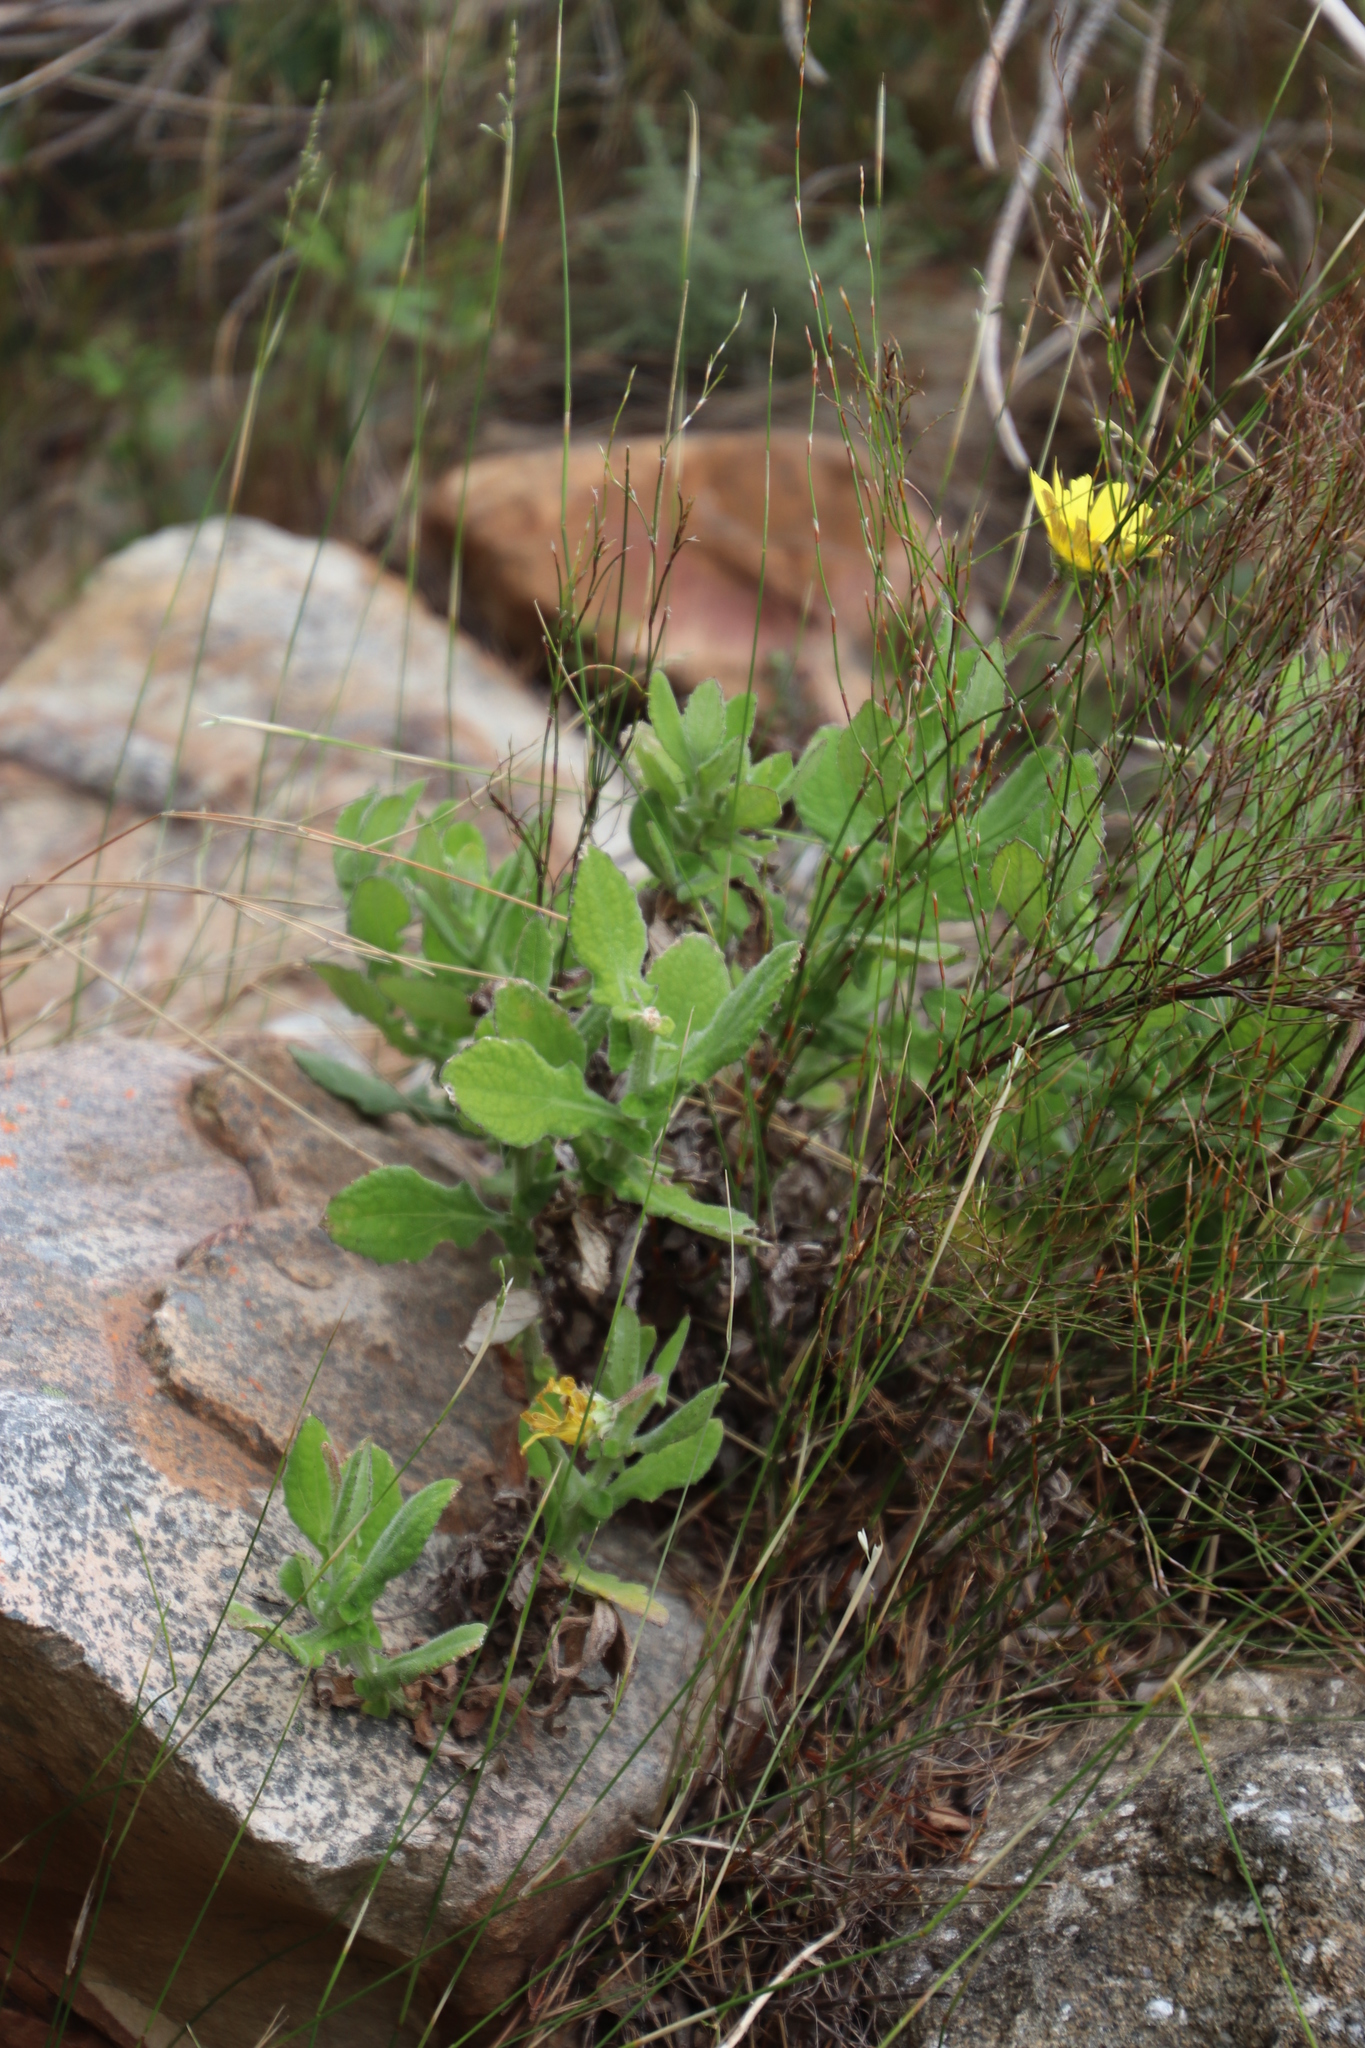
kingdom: Plantae
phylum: Tracheophyta
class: Magnoliopsida
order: Asterales
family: Asteraceae
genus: Arctotis
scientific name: Arctotis scabra
